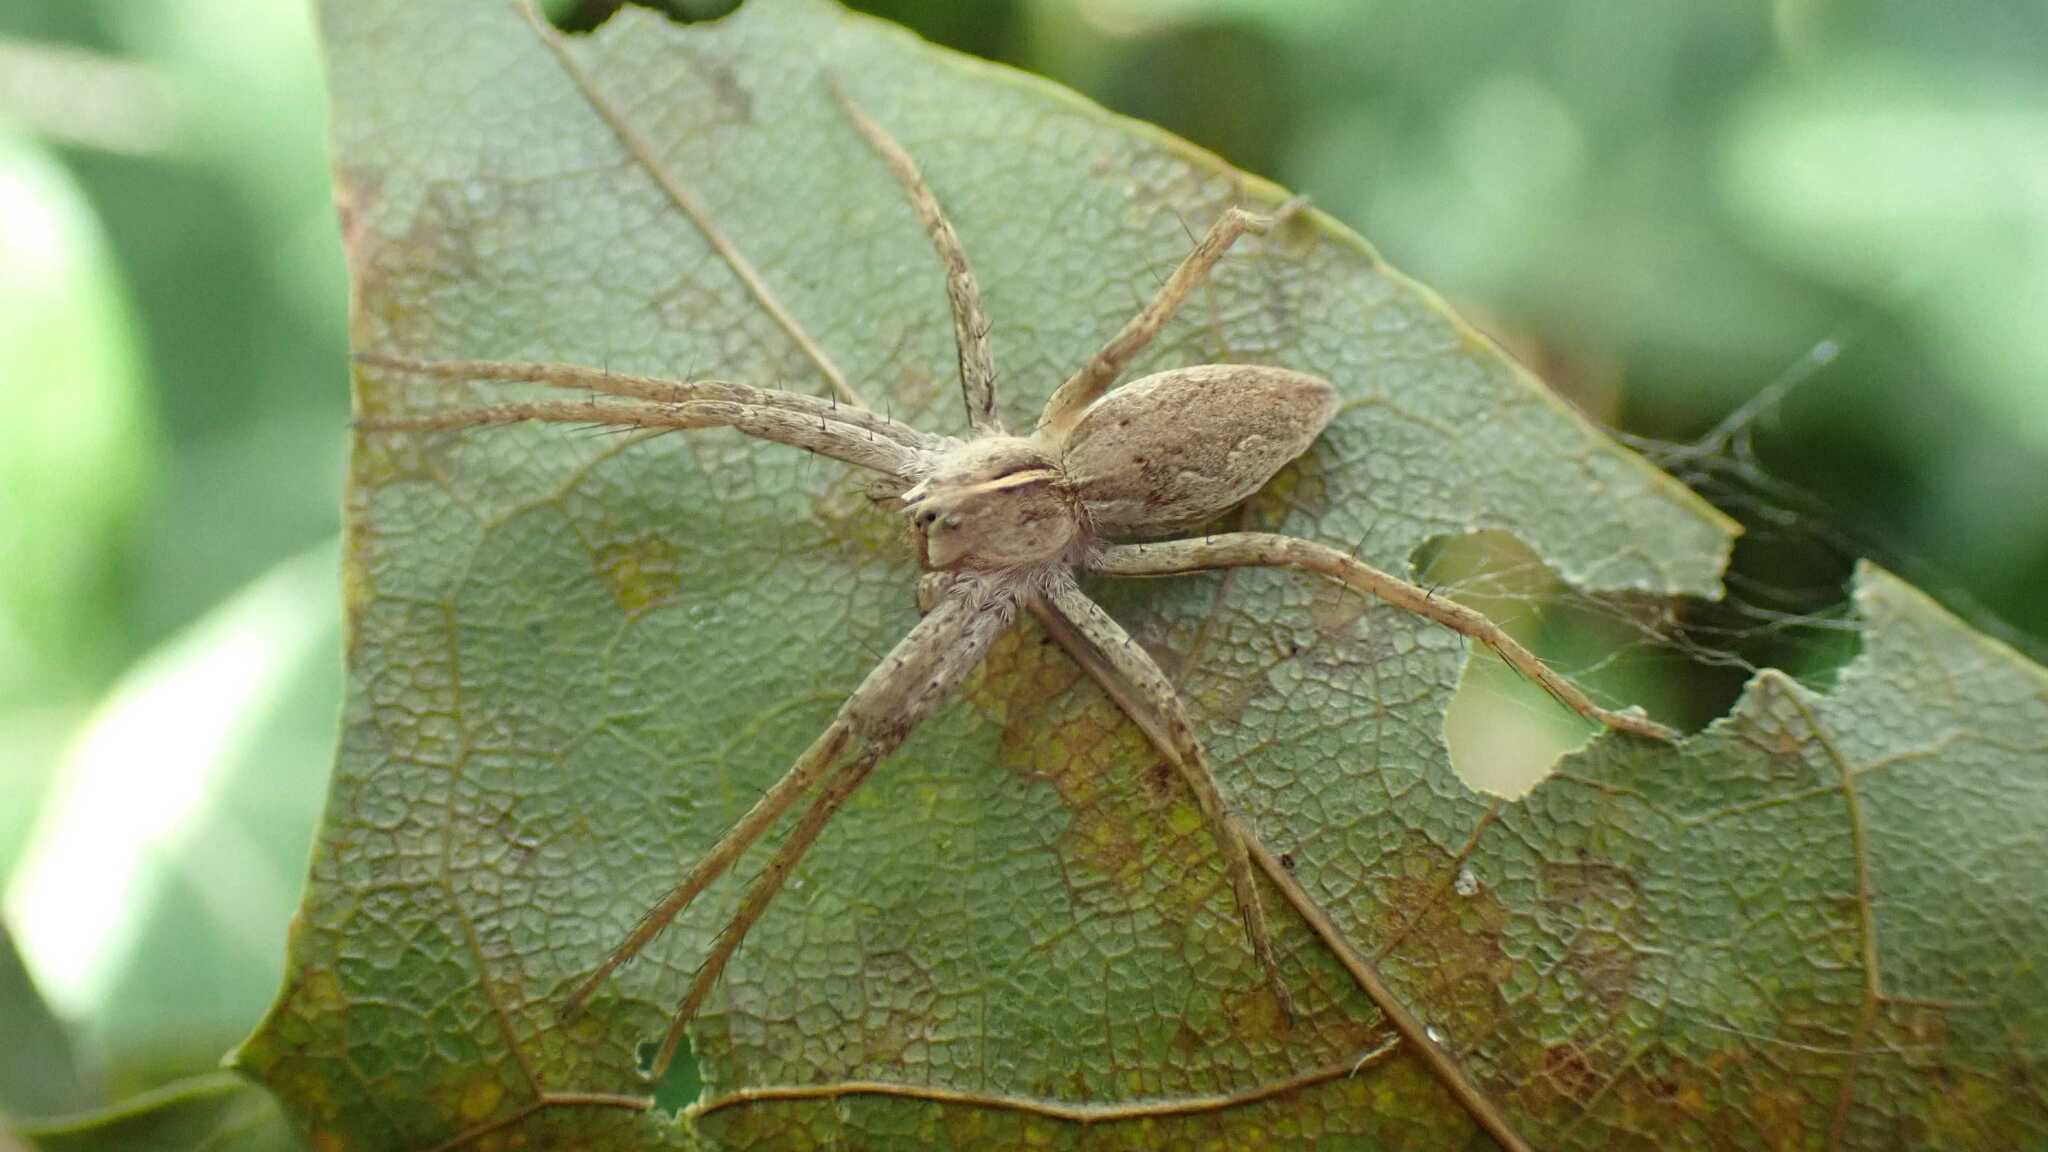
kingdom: Animalia
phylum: Arthropoda
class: Arachnida
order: Araneae
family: Pisauridae
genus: Pisaura
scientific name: Pisaura mirabilis
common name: Tent spider
